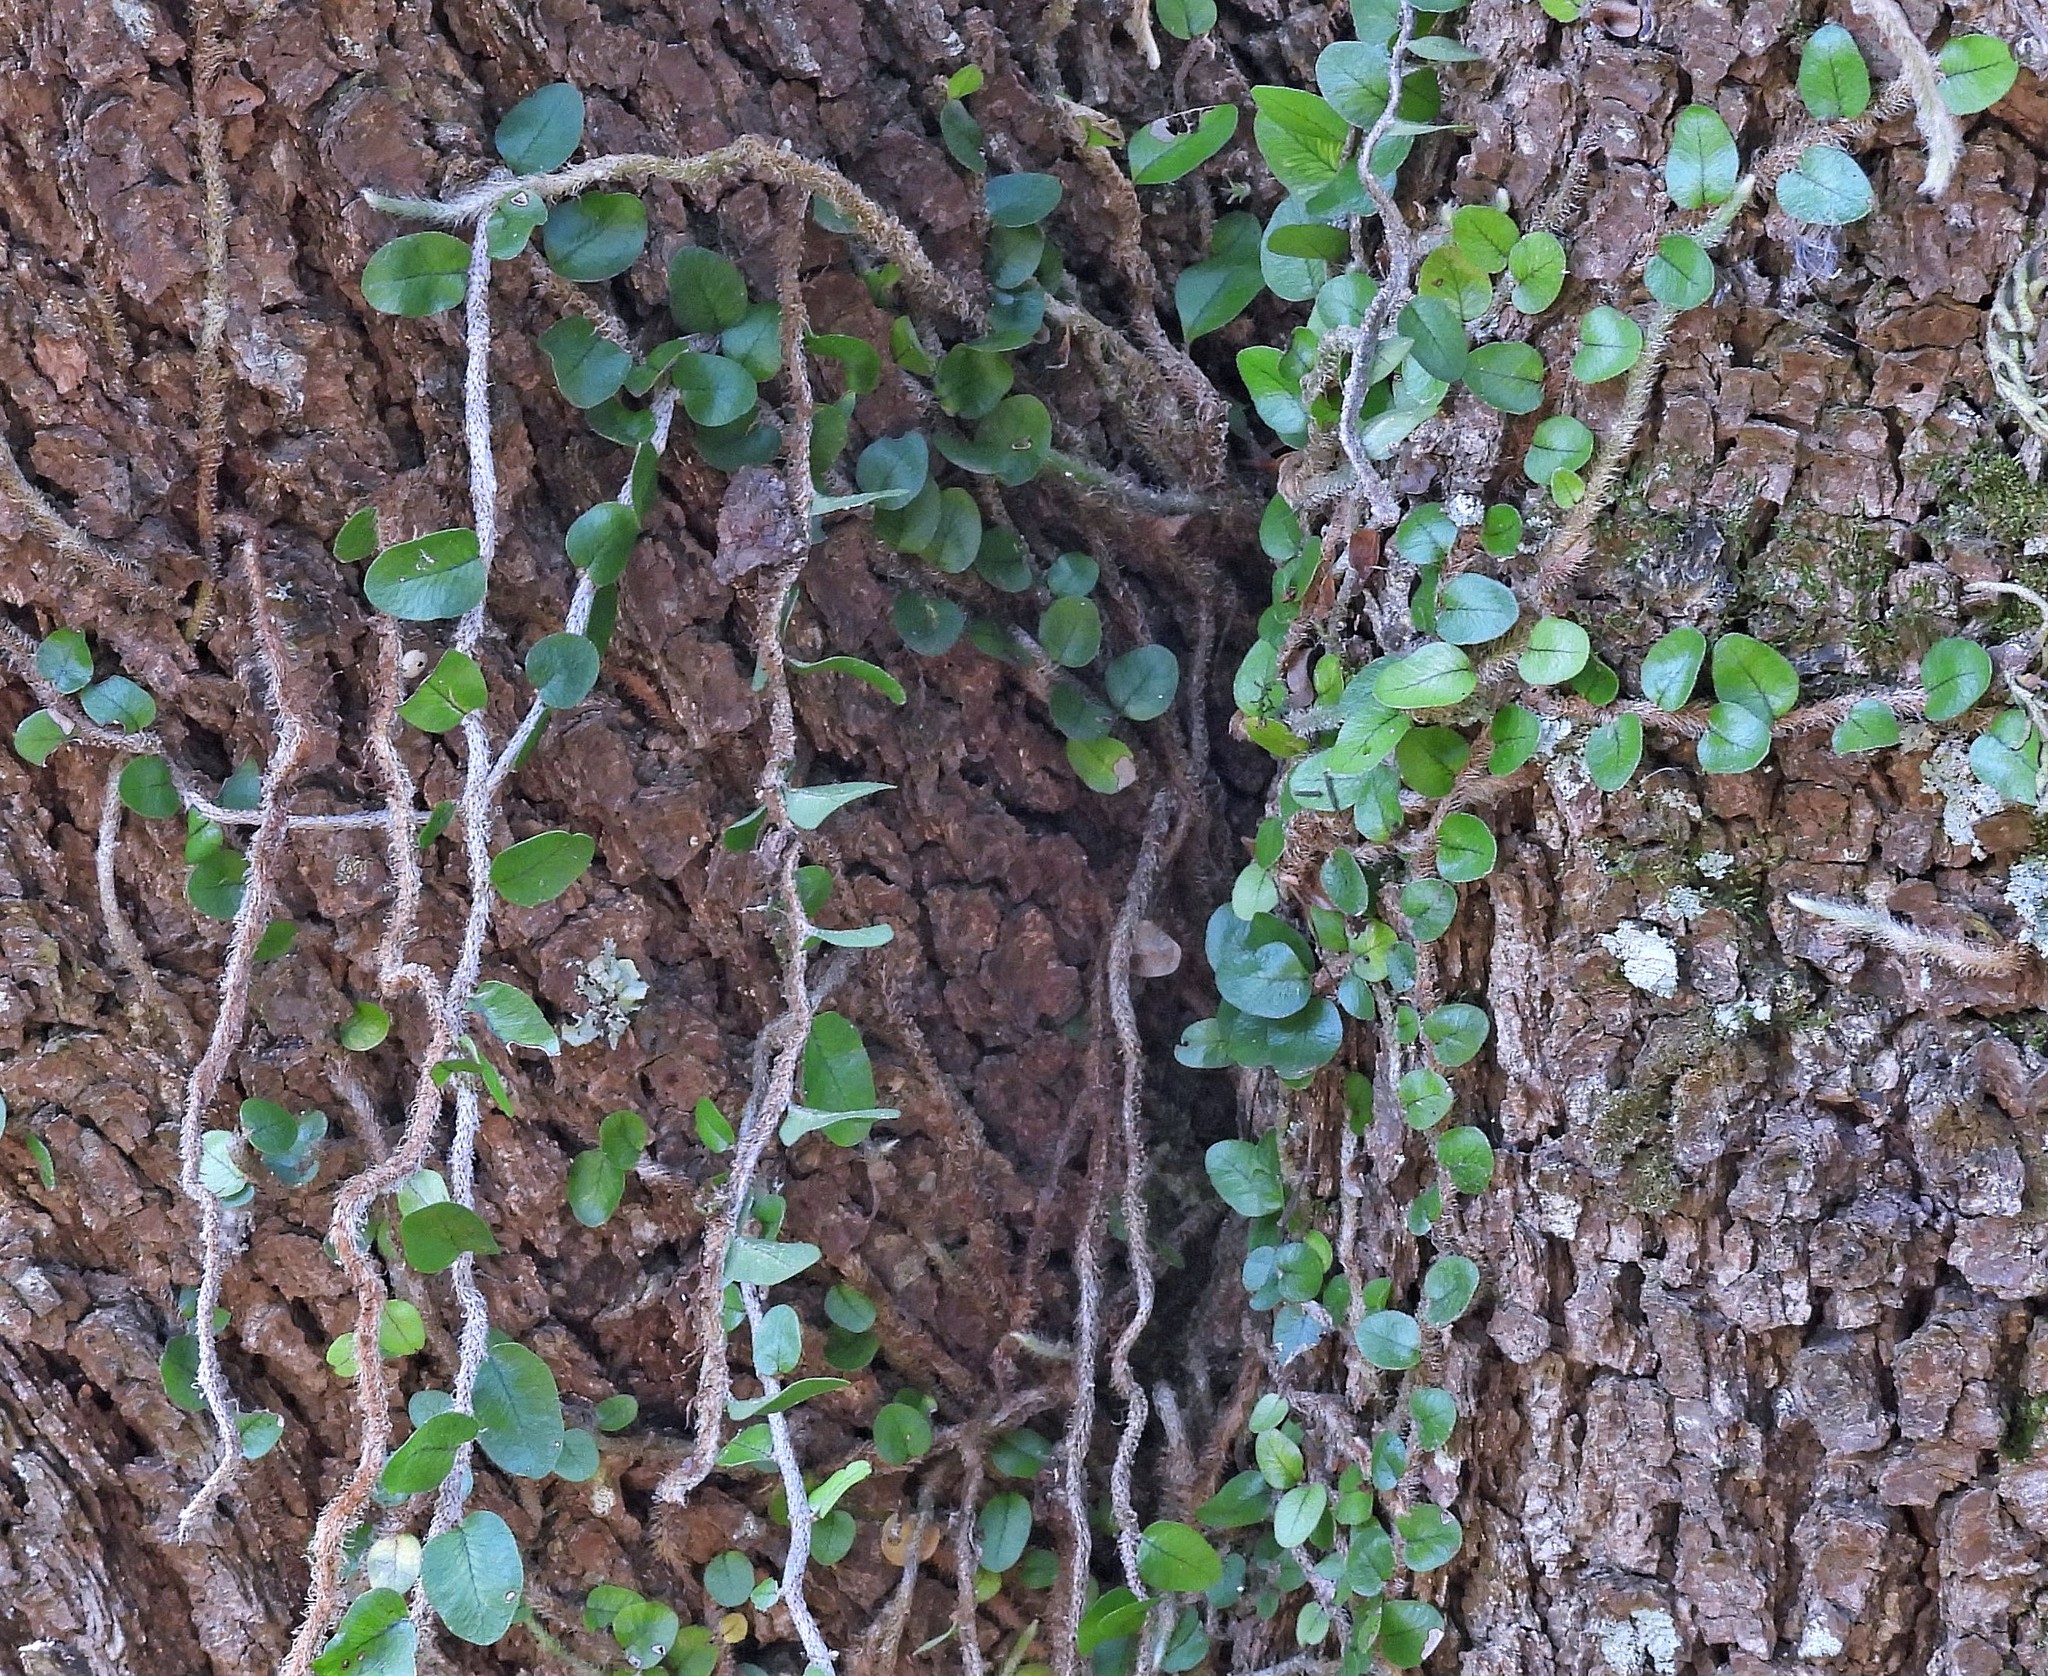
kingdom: Plantae
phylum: Tracheophyta
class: Polypodiopsida
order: Polypodiales
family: Polypodiaceae
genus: Microgramma
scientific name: Microgramma vaccinifolia
